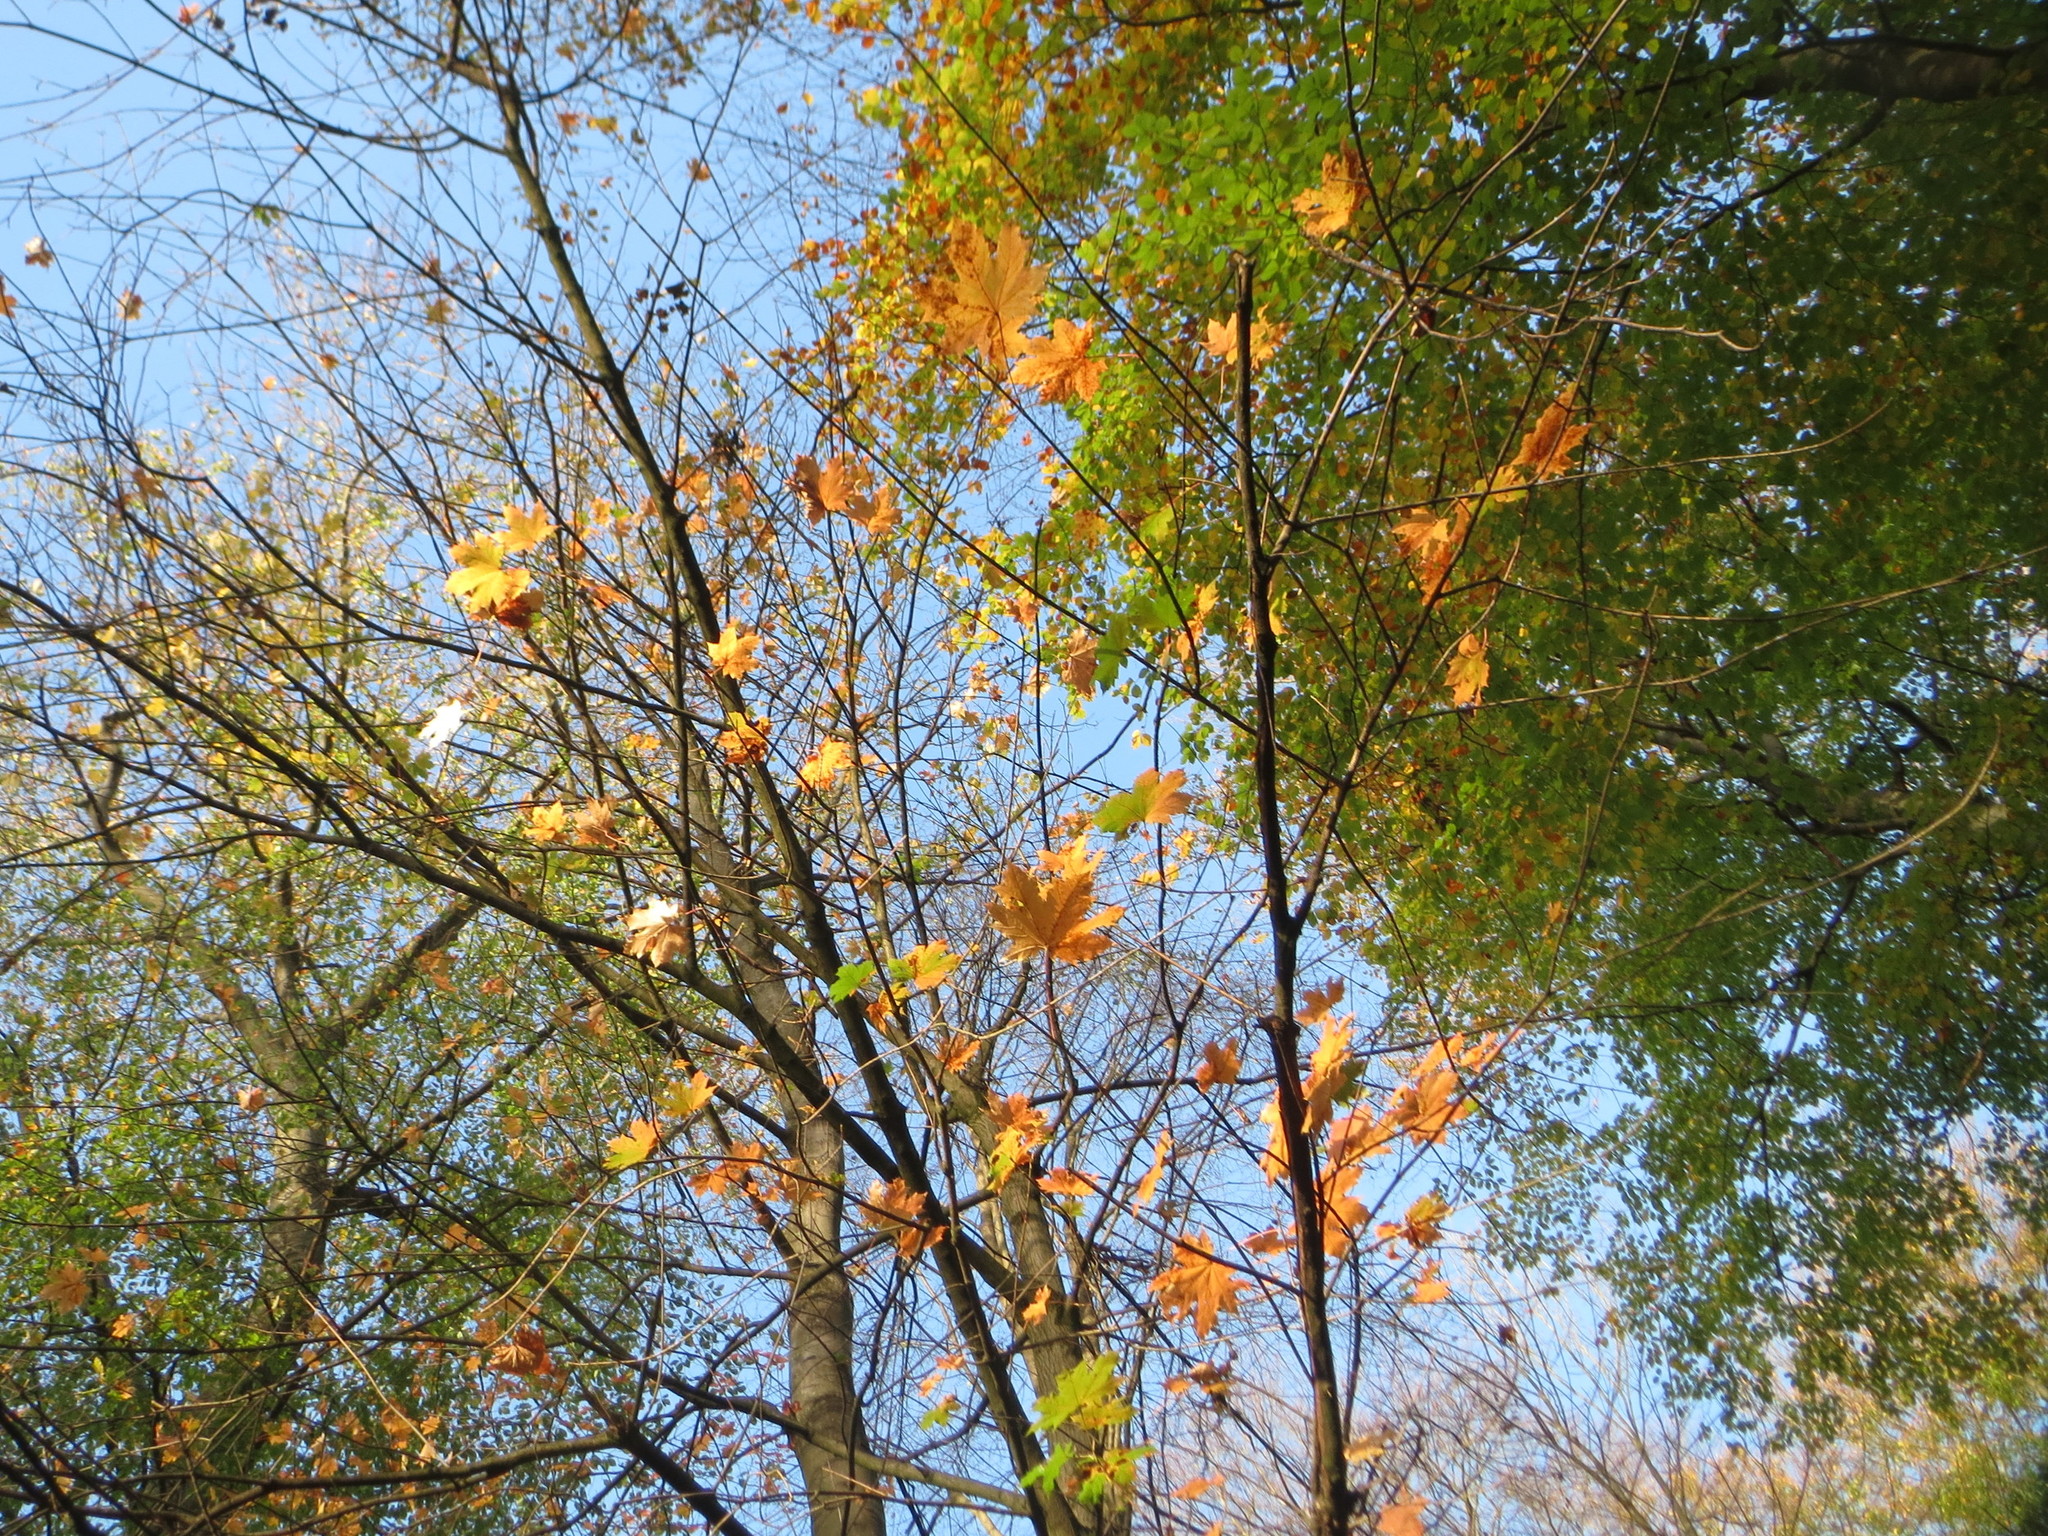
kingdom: Plantae
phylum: Tracheophyta
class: Magnoliopsida
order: Sapindales
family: Sapindaceae
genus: Acer
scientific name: Acer platanoides
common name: Norway maple
